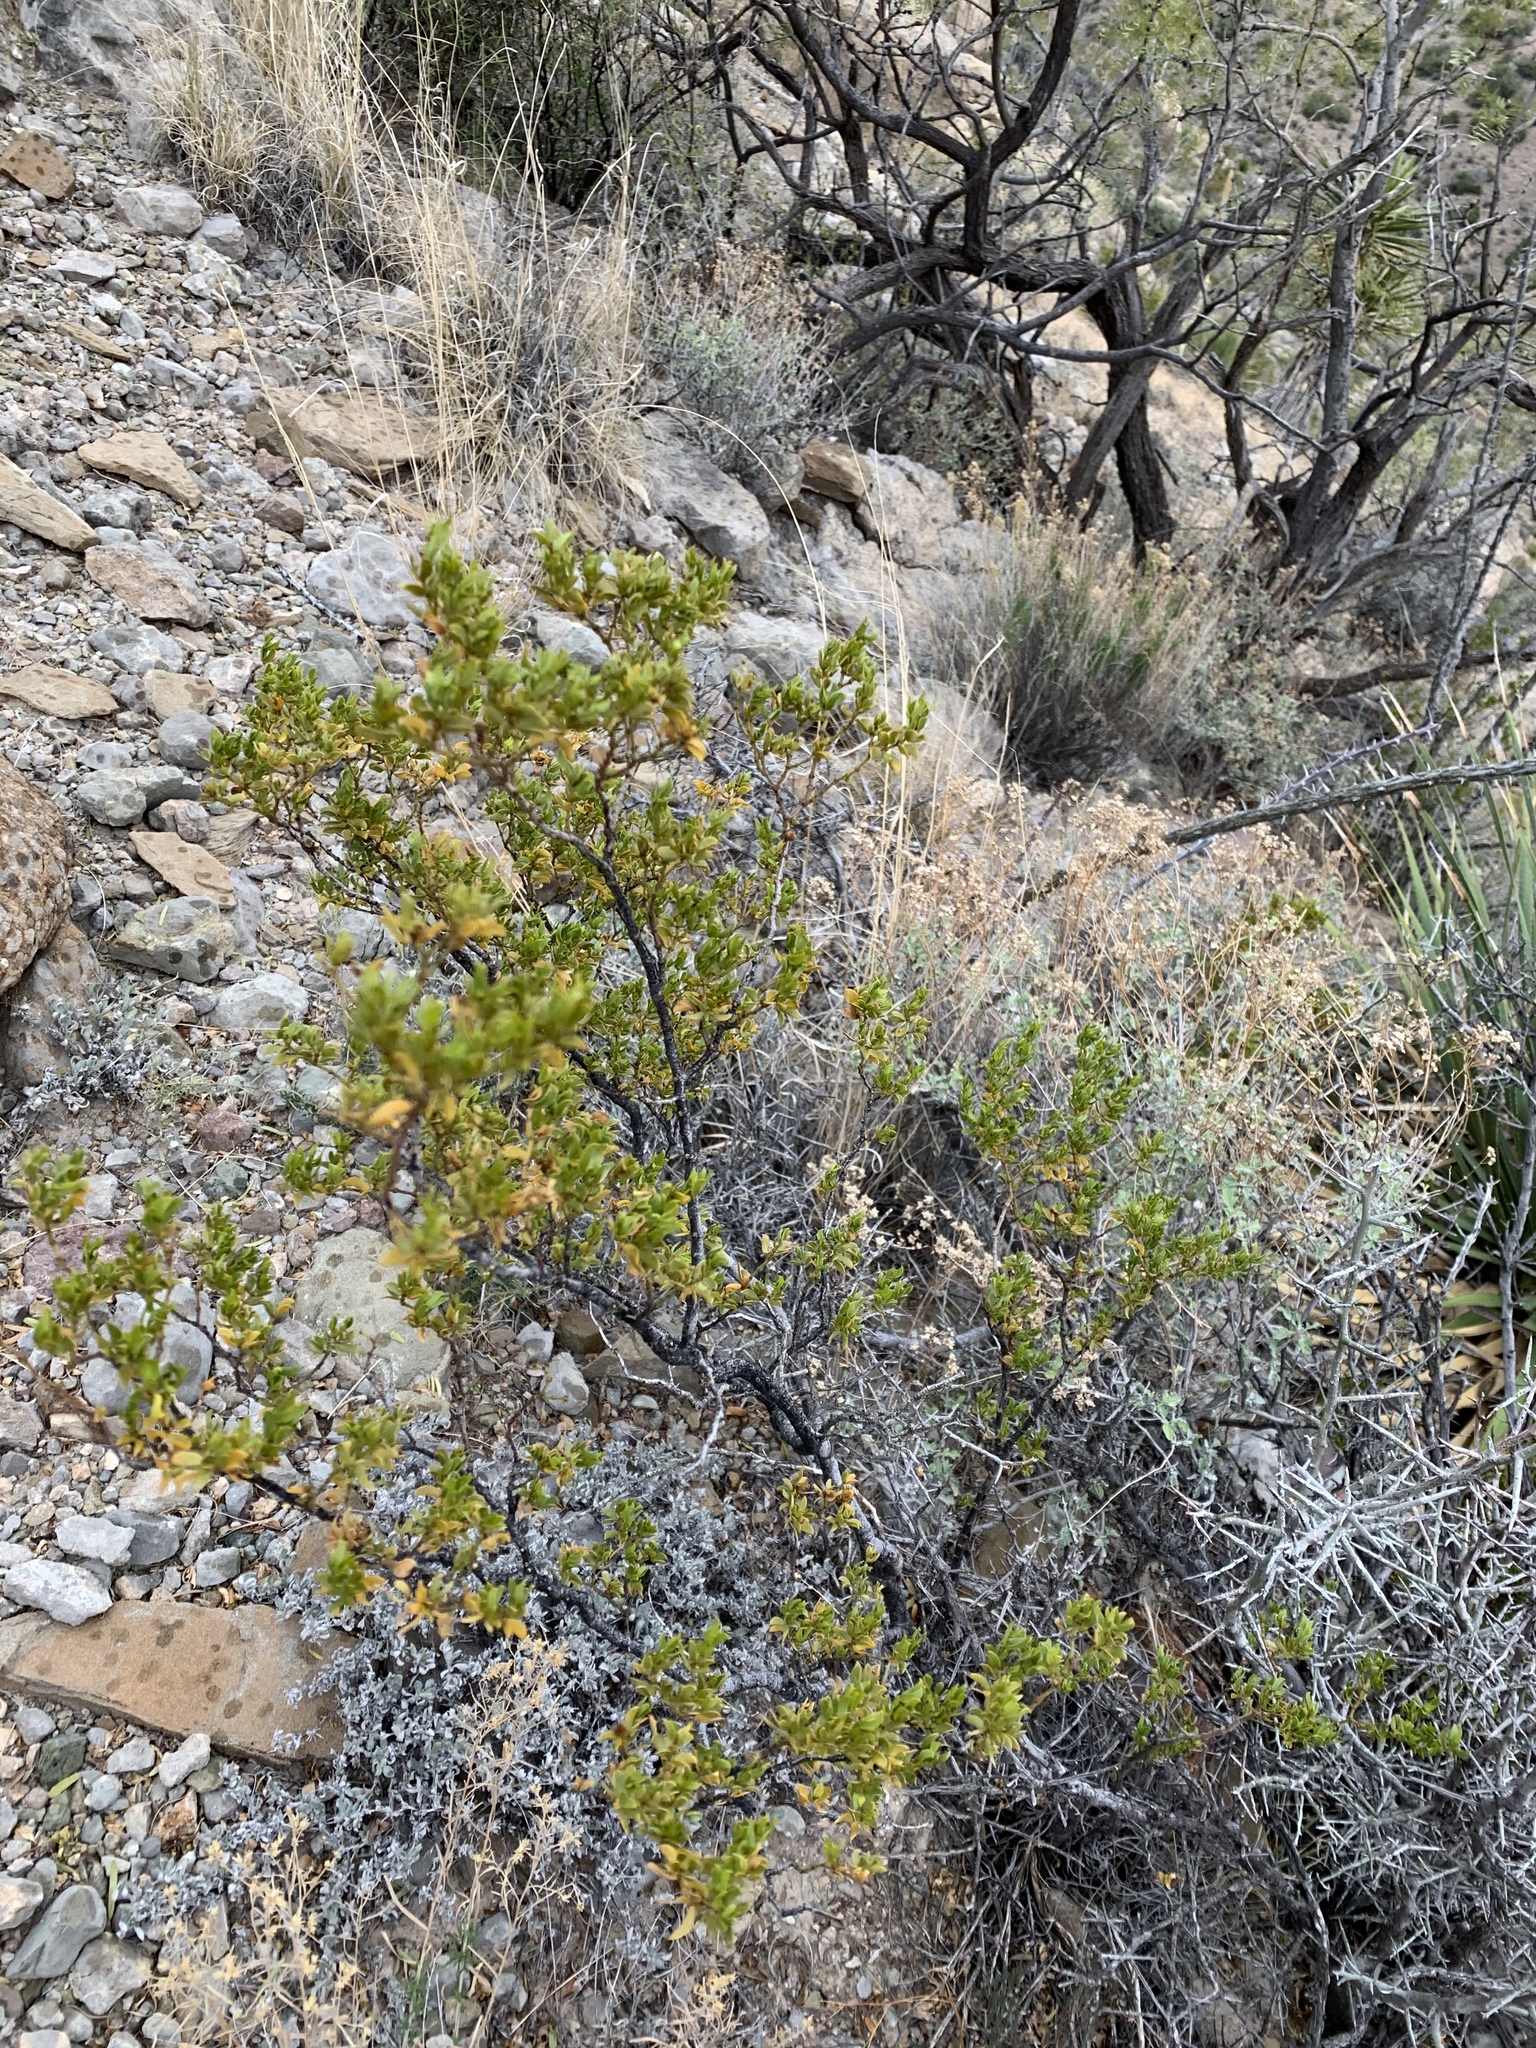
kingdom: Plantae
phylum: Tracheophyta
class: Magnoliopsida
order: Zygophyllales
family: Zygophyllaceae
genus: Larrea
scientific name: Larrea tridentata
